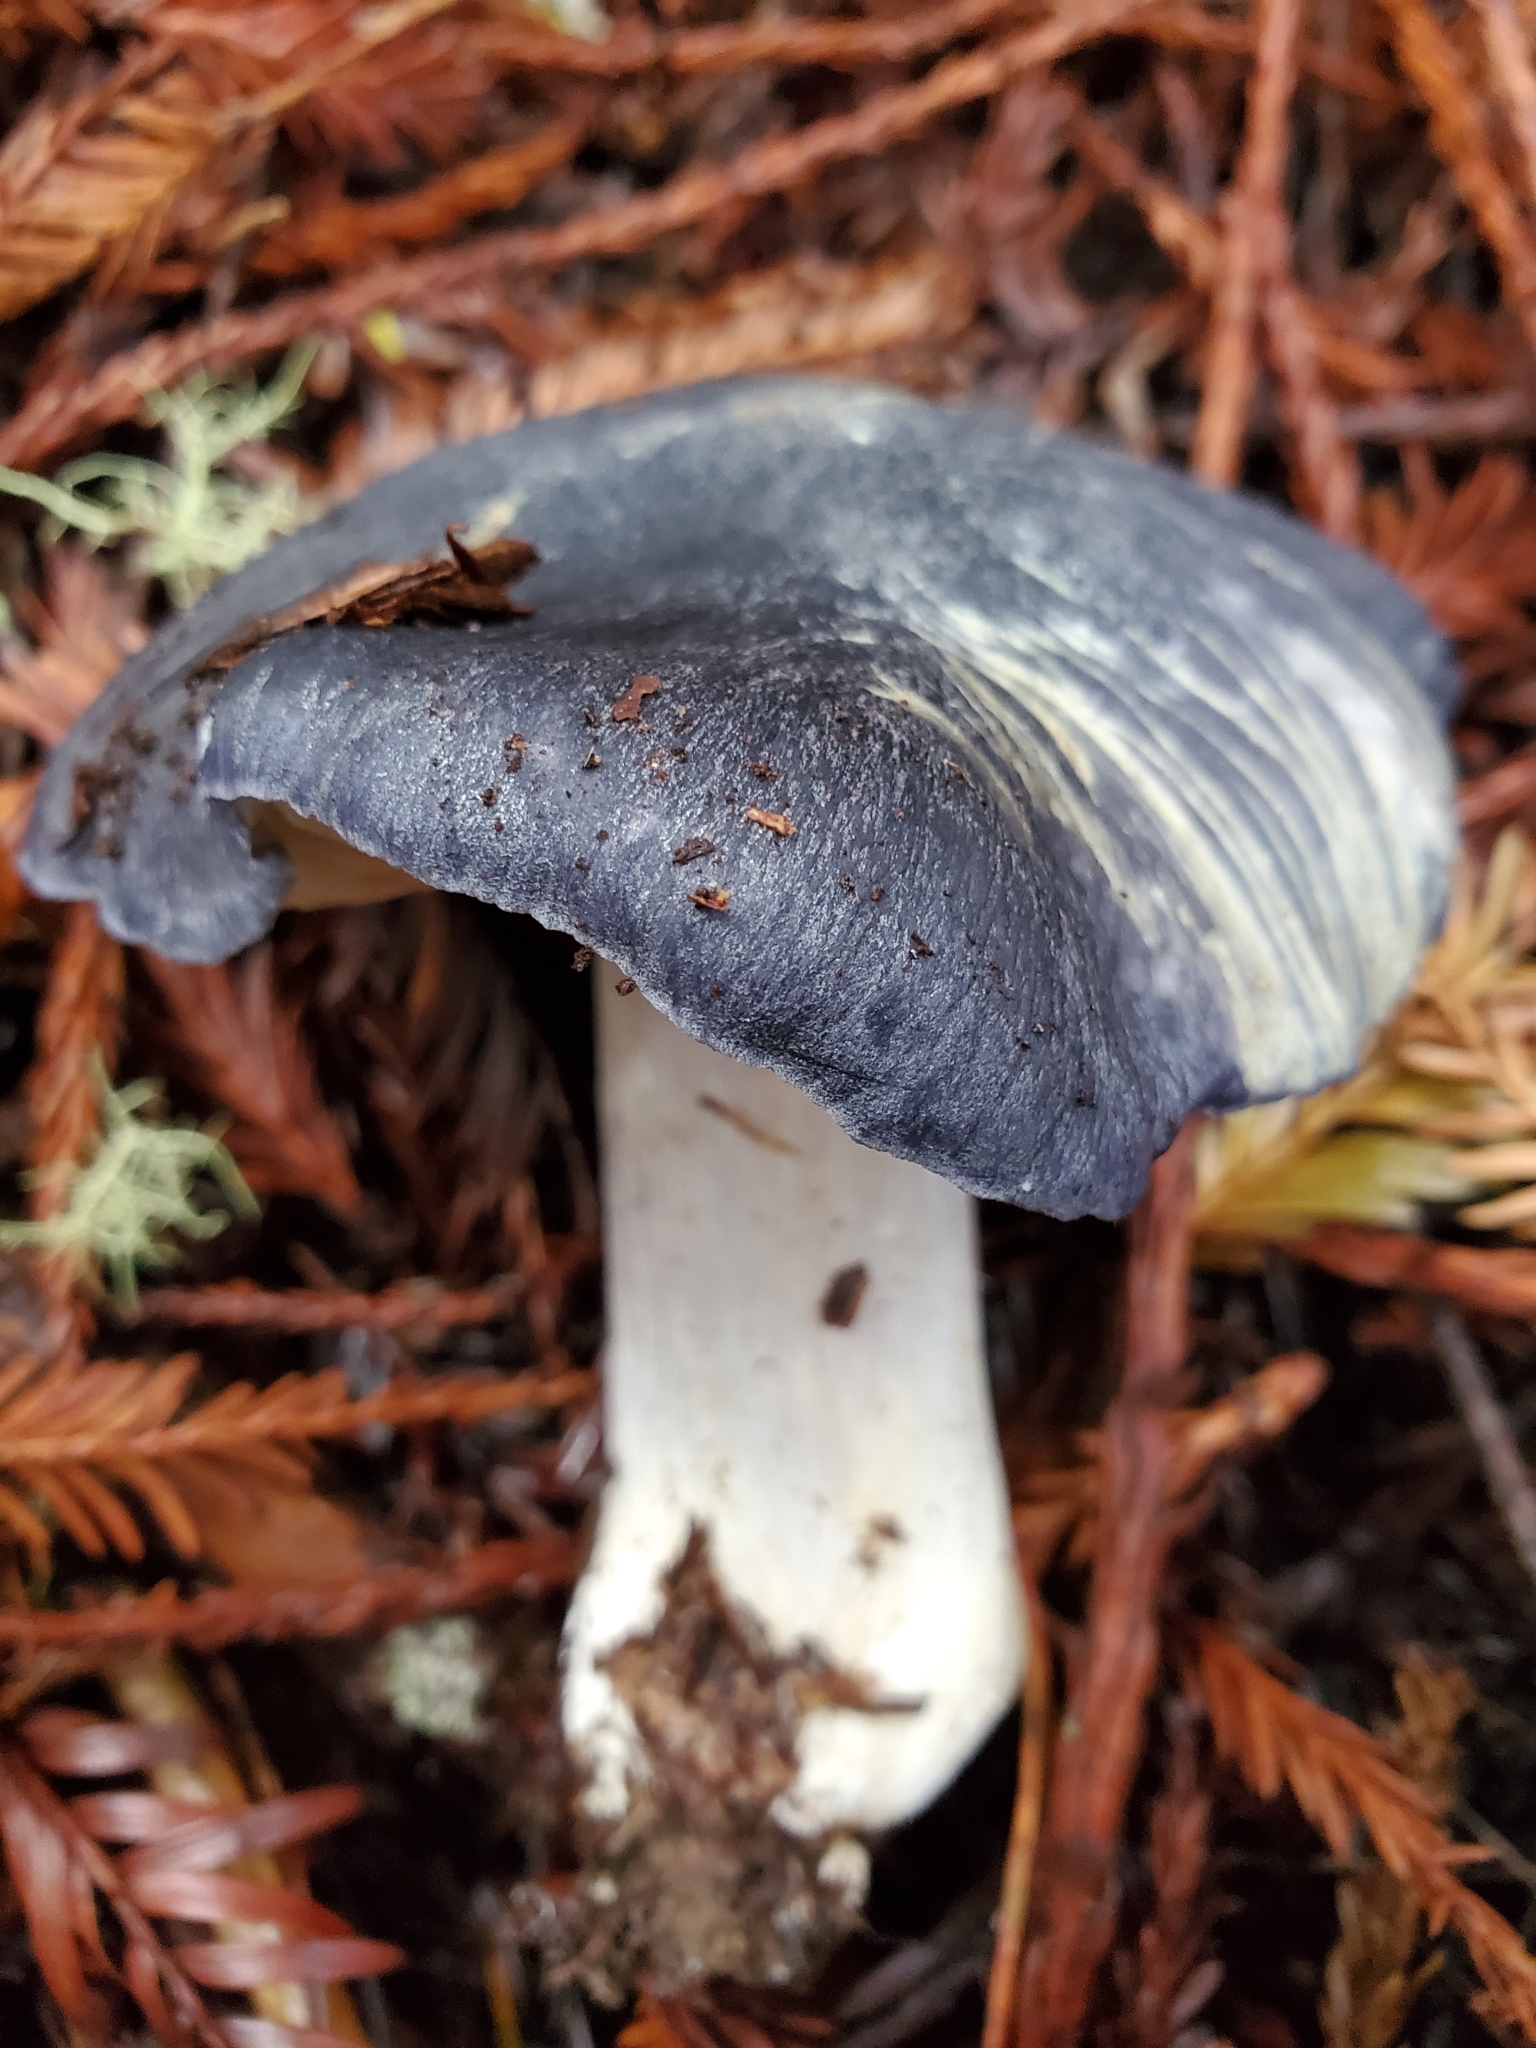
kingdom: Fungi
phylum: Basidiomycota
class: Agaricomycetes
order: Agaricales
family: Entolomataceae
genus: Entoloma
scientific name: Entoloma medianox
